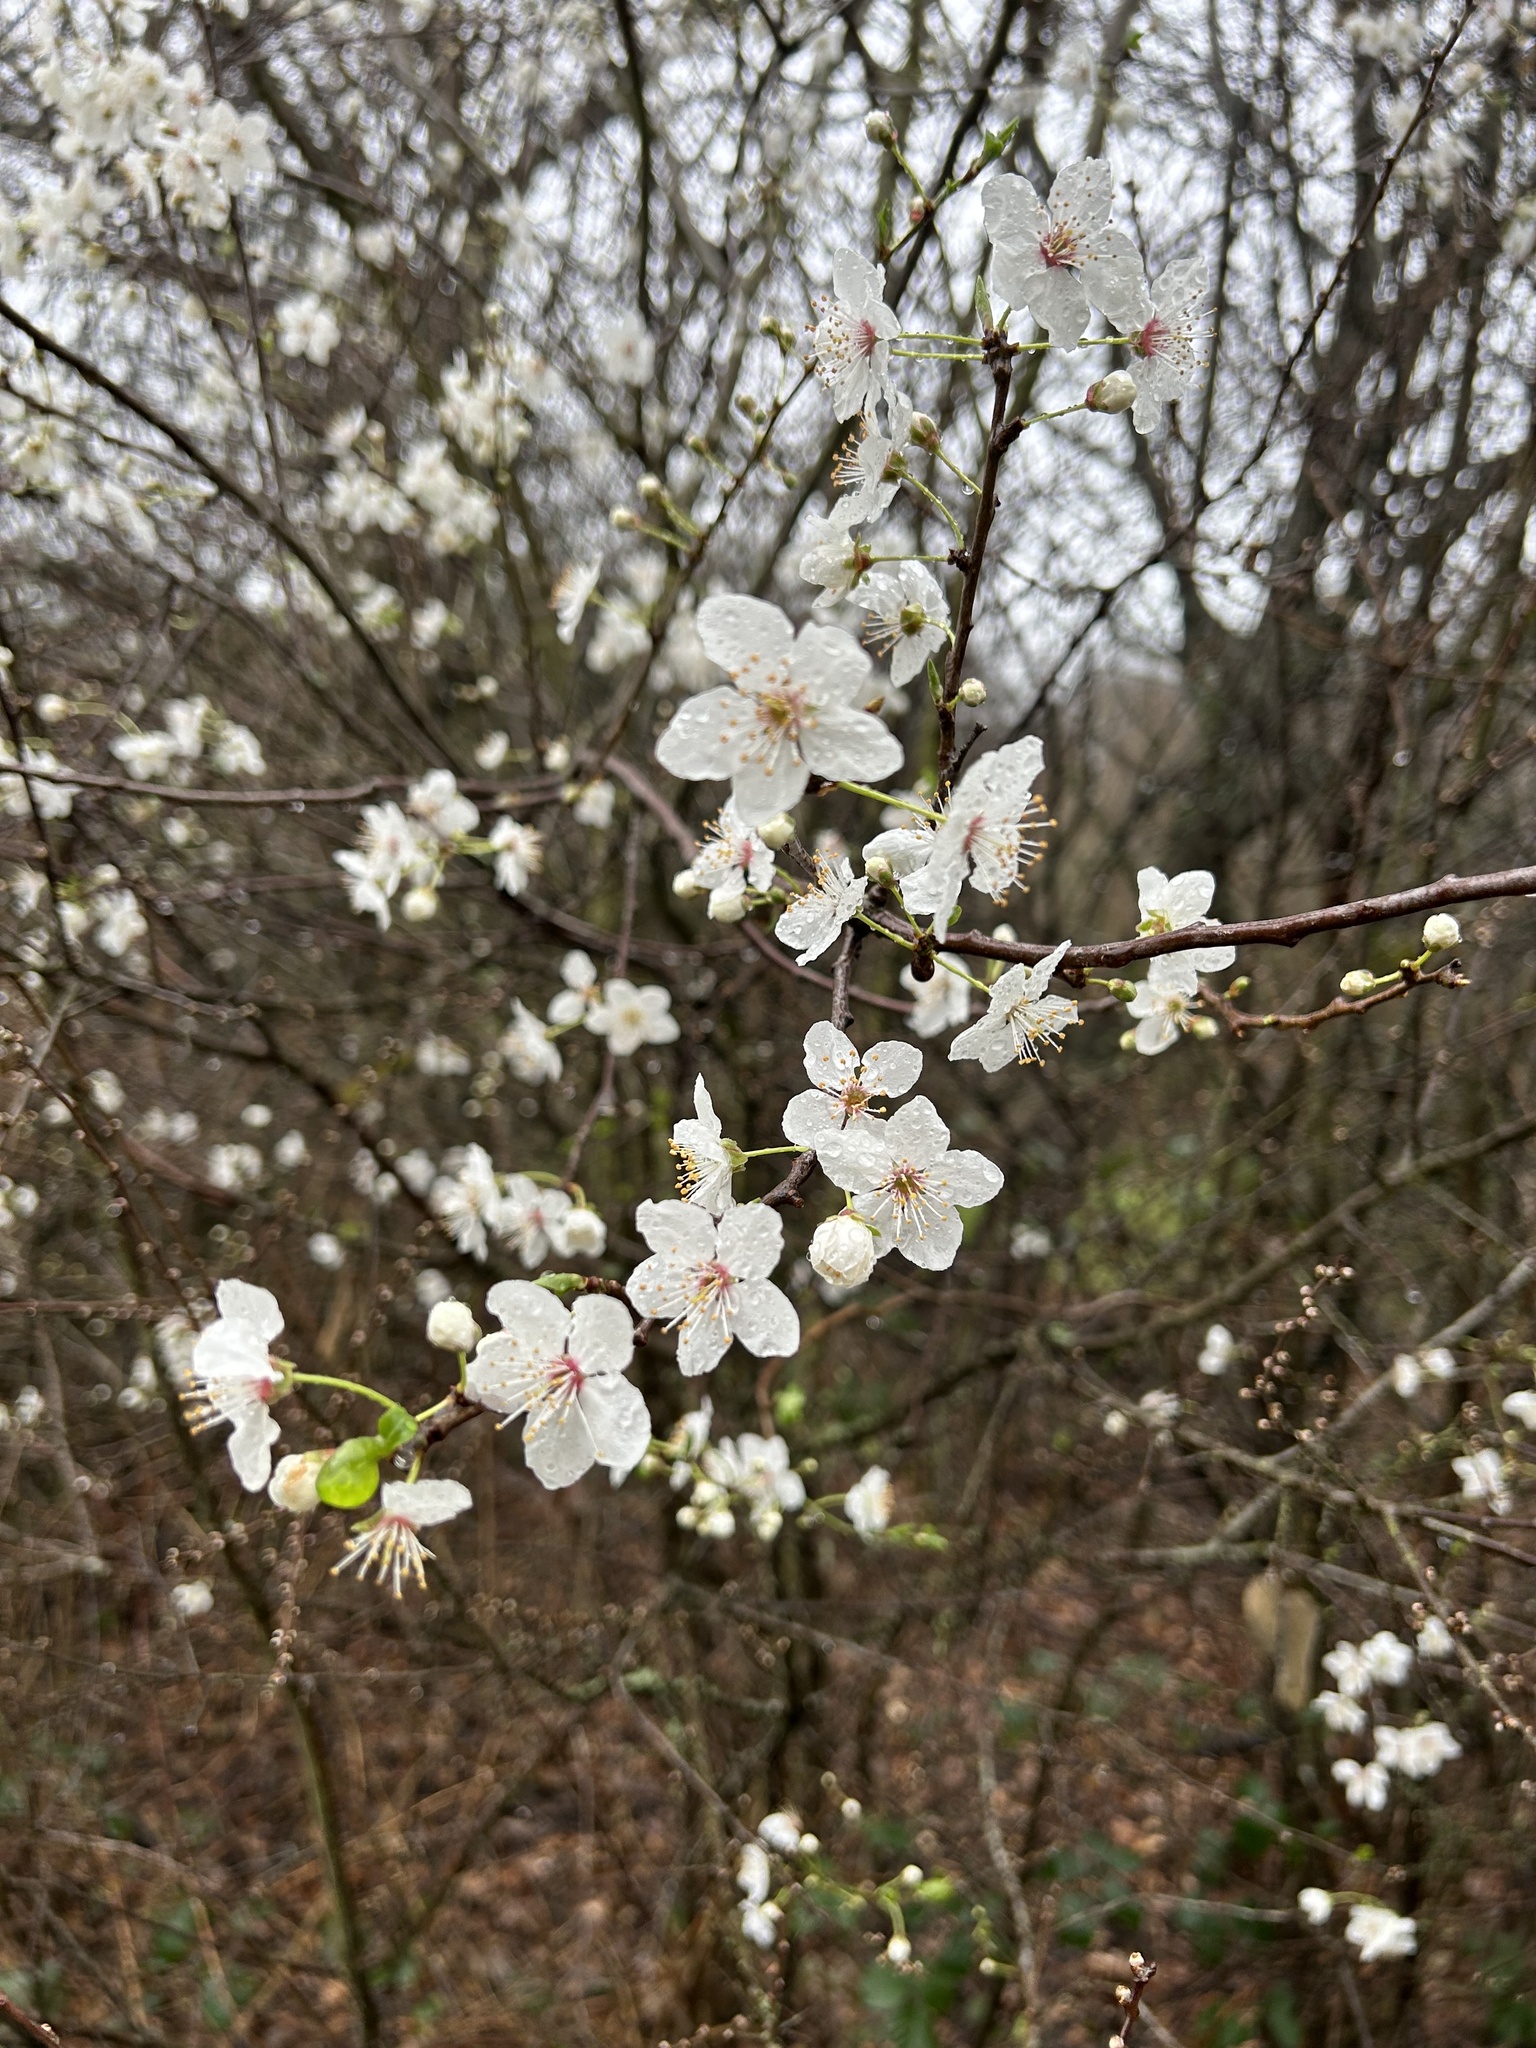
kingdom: Plantae
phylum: Tracheophyta
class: Magnoliopsida
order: Rosales
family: Rosaceae
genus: Prunus
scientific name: Prunus cerasifera
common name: Cherry plum
